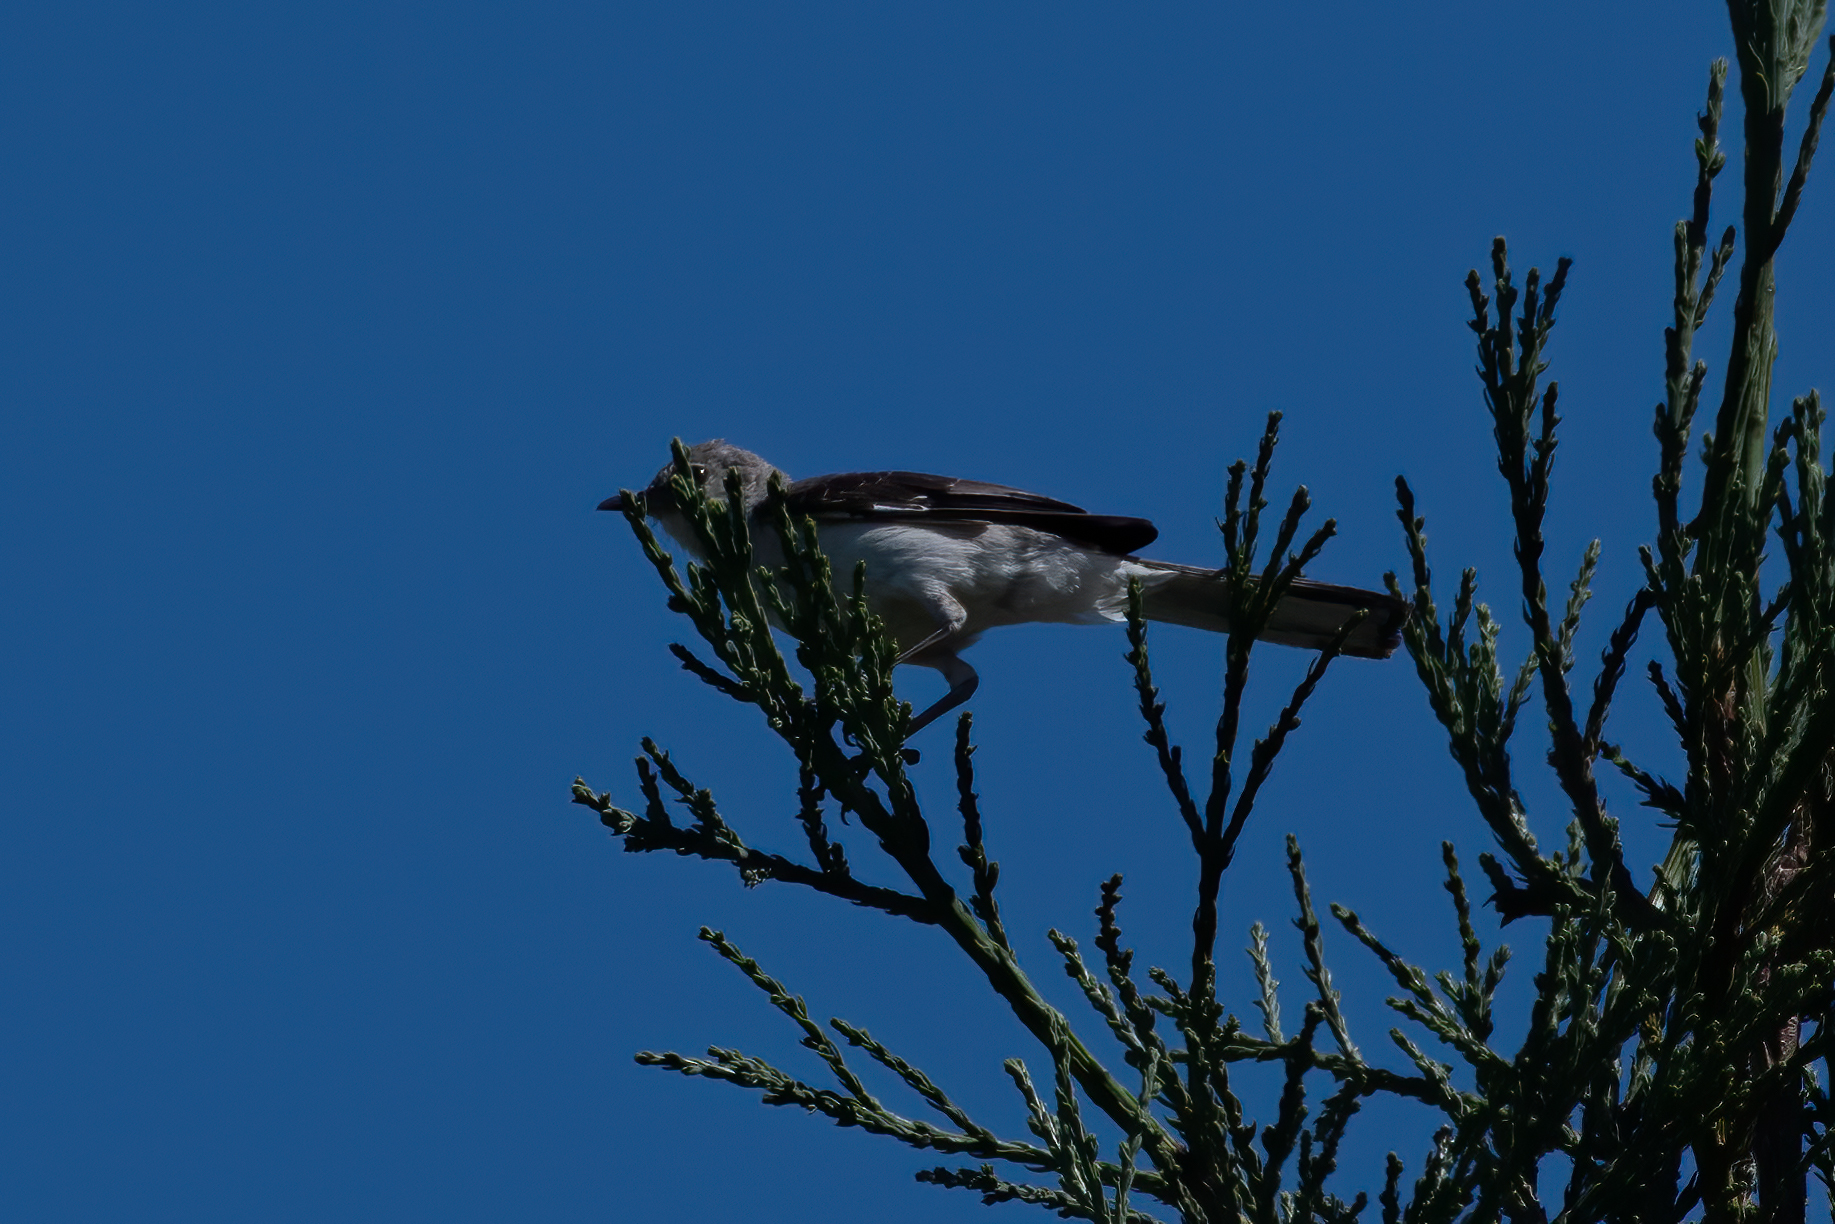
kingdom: Animalia
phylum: Chordata
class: Aves
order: Passeriformes
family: Mimidae
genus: Mimus
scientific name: Mimus polyglottos
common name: Northern mockingbird
